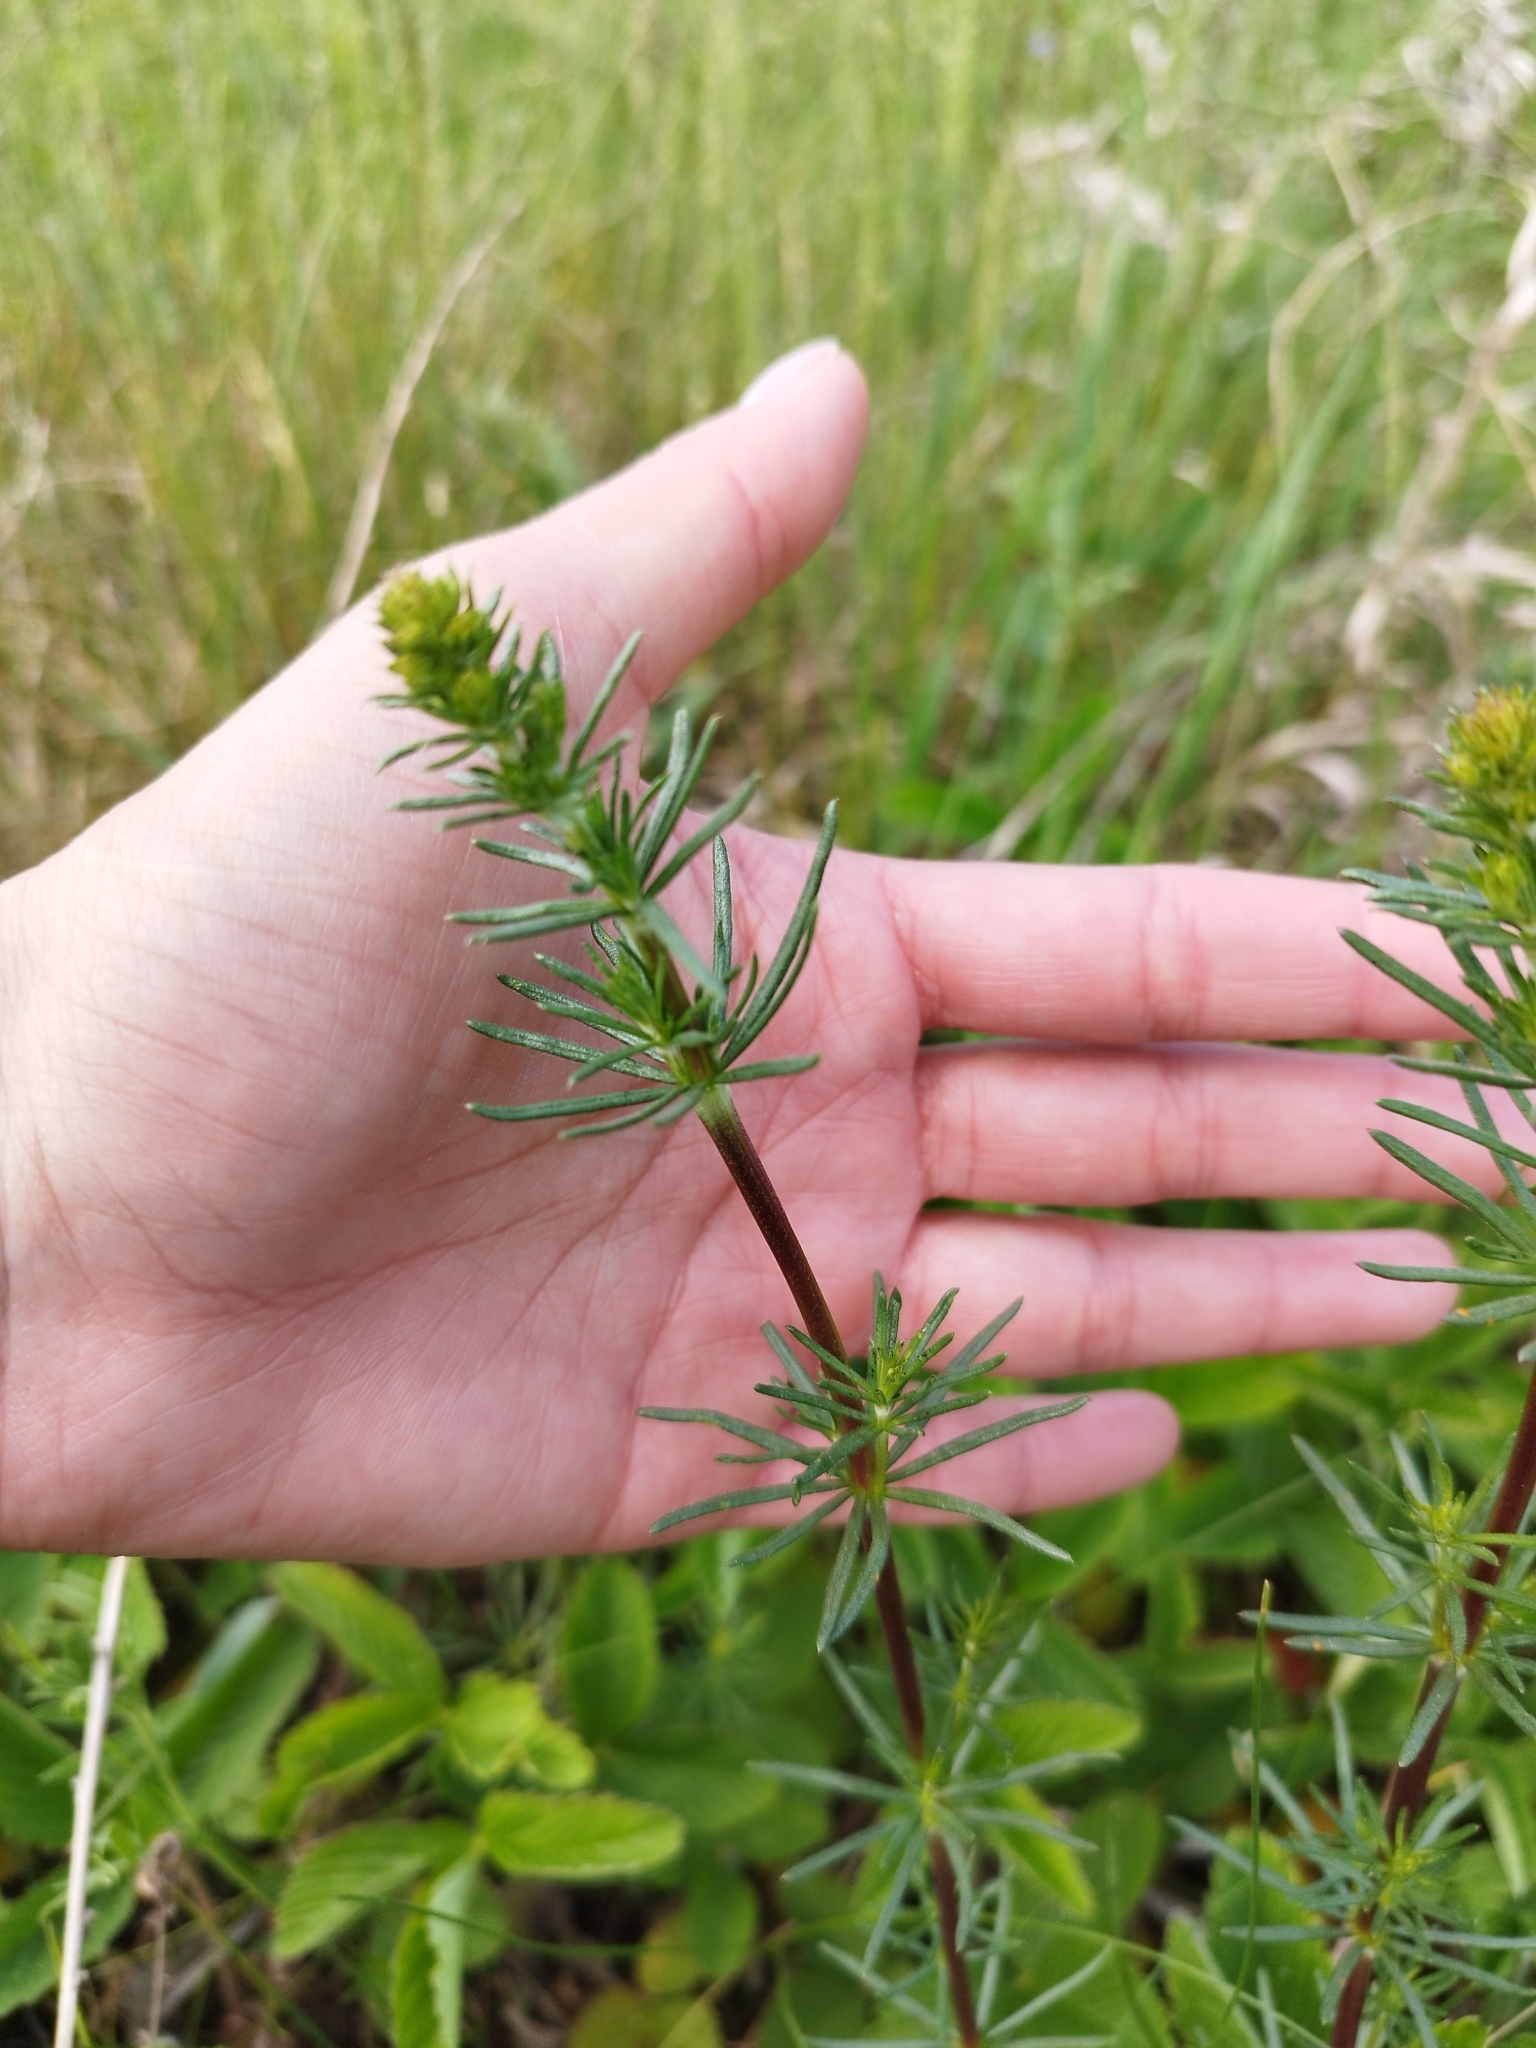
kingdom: Plantae
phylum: Tracheophyta
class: Magnoliopsida
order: Gentianales
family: Rubiaceae
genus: Galium
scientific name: Galium verum
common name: Lady's bedstraw
